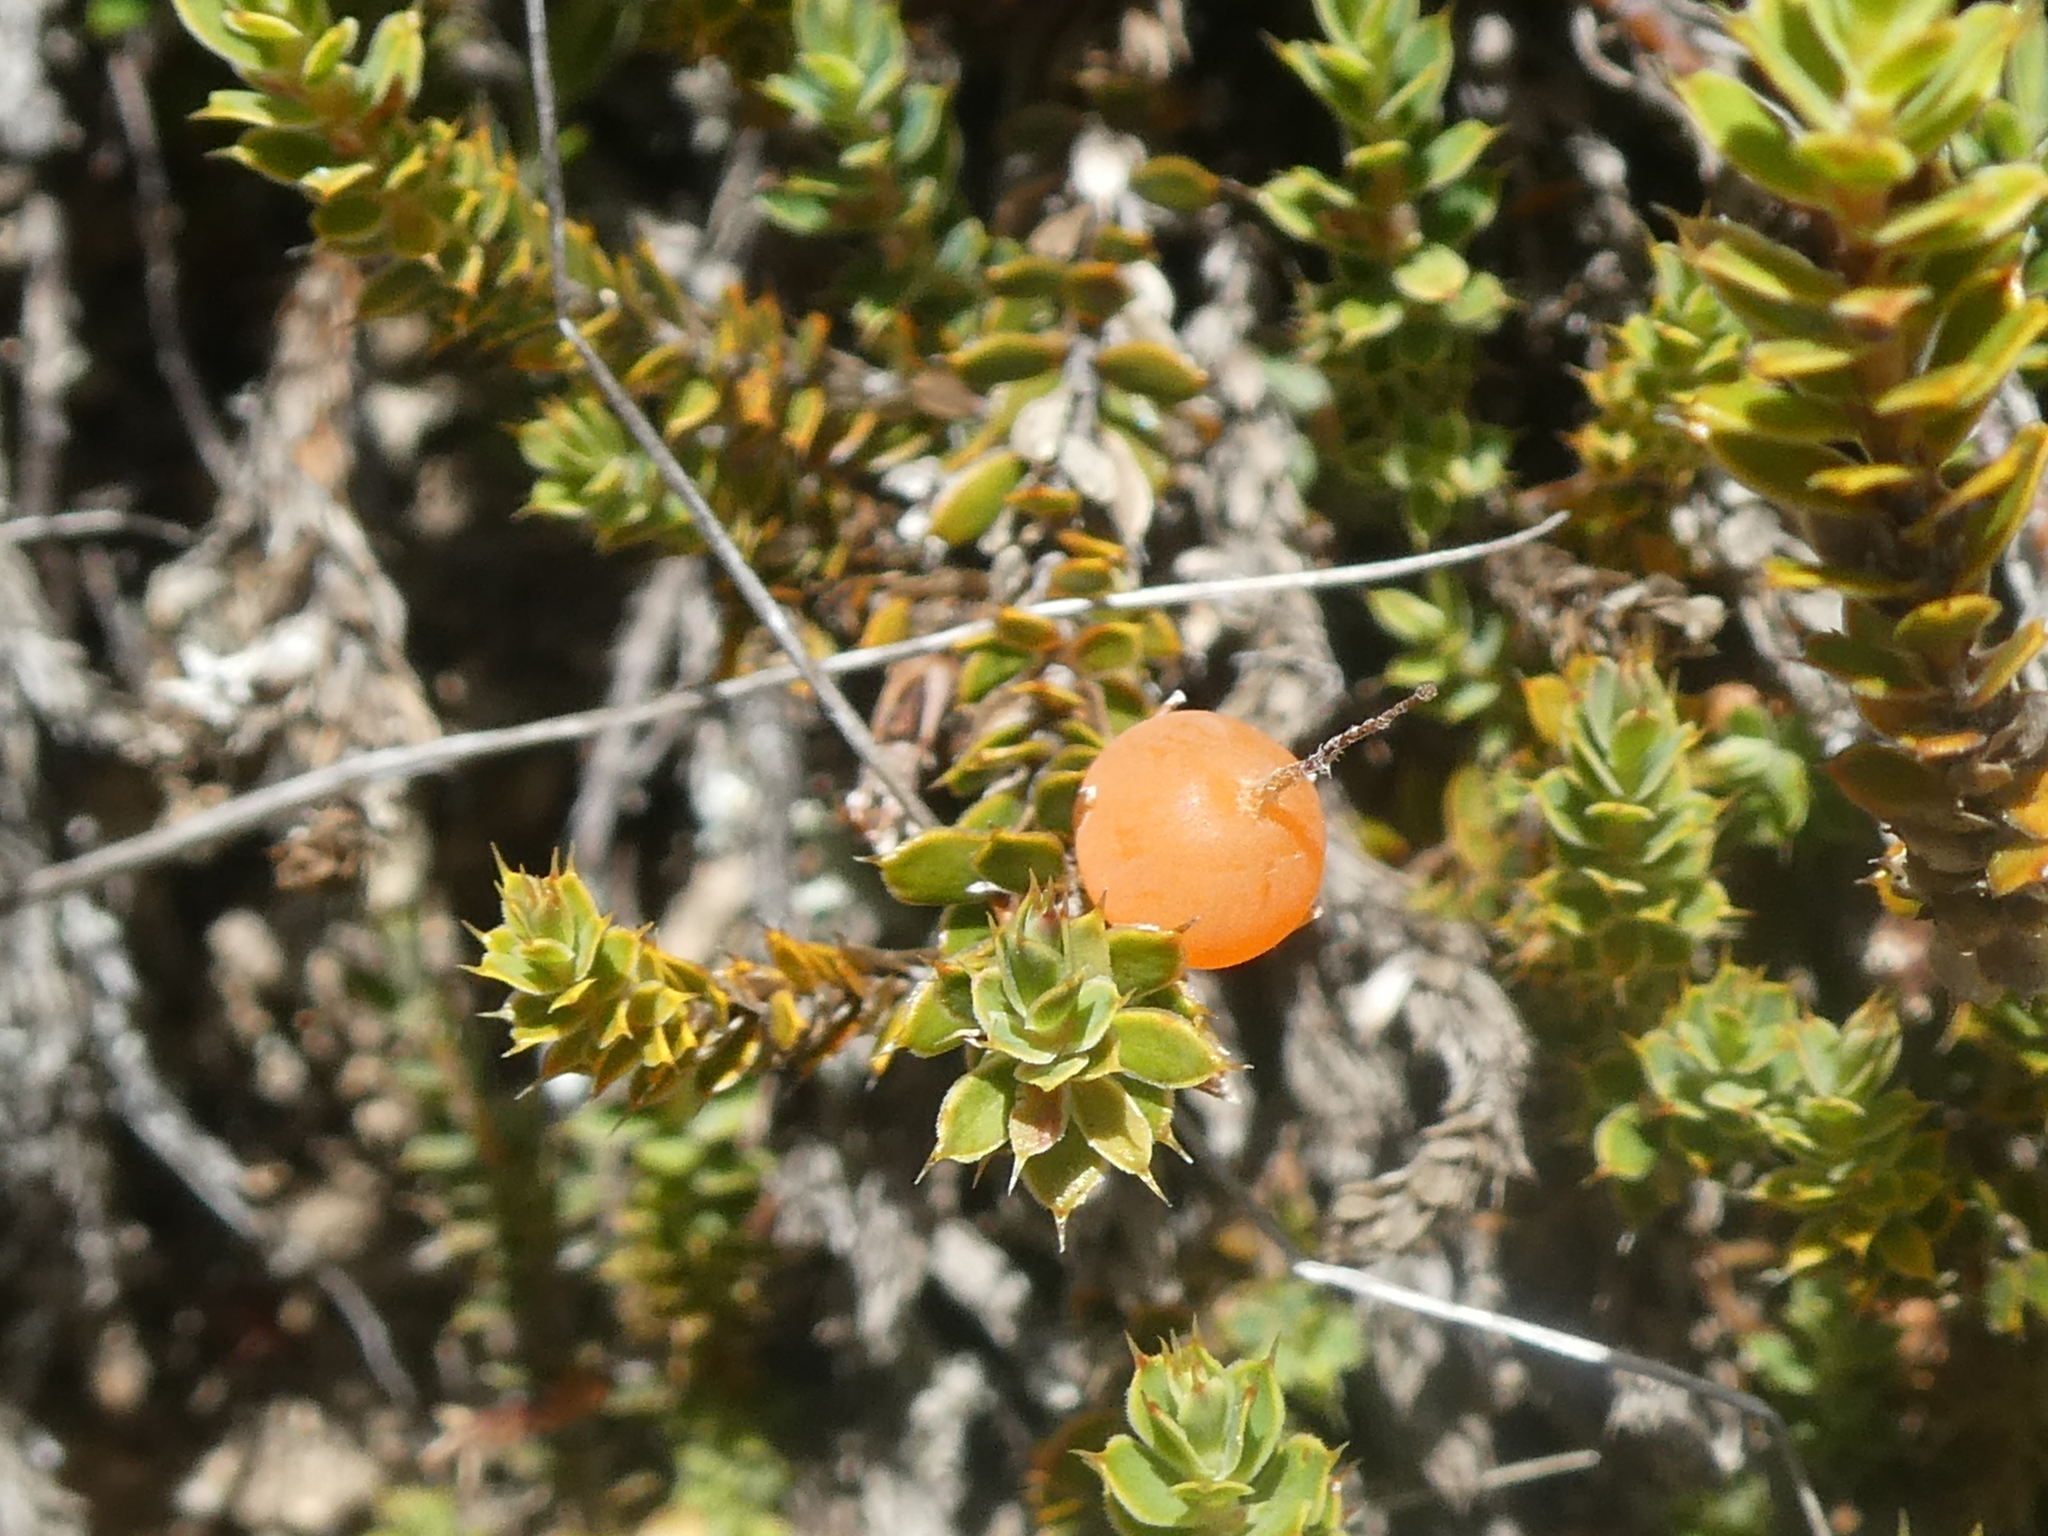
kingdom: Plantae
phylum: Tracheophyta
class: Magnoliopsida
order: Ericales
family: Ericaceae
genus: Styphelia
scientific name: Styphelia nesophila
